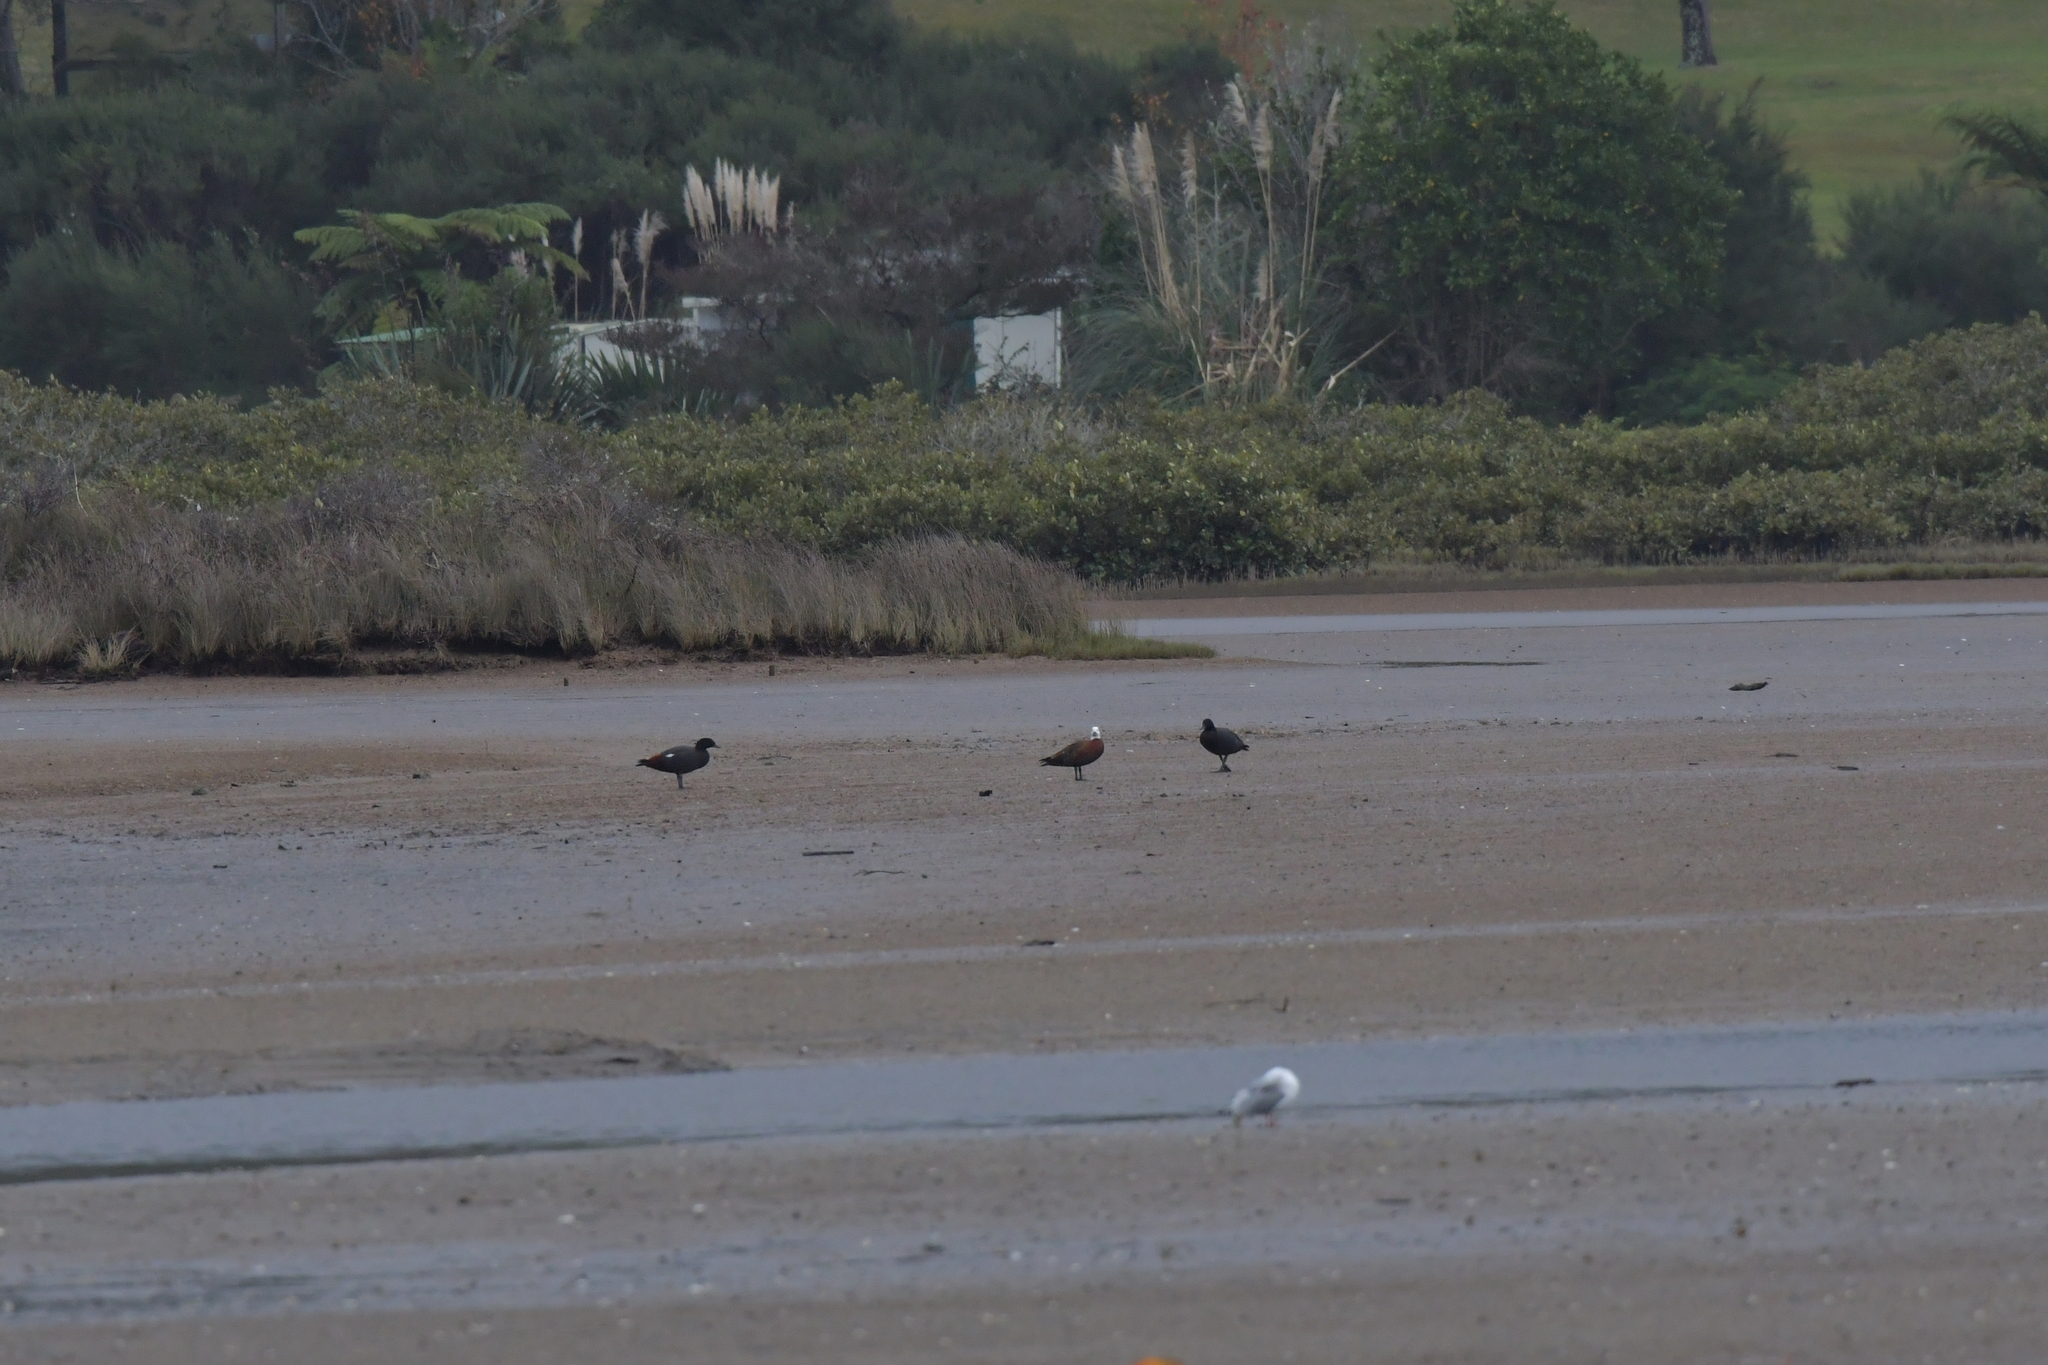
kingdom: Animalia
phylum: Chordata
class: Aves
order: Anseriformes
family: Anatidae
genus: Tadorna
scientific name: Tadorna variegata
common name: Paradise shelduck
